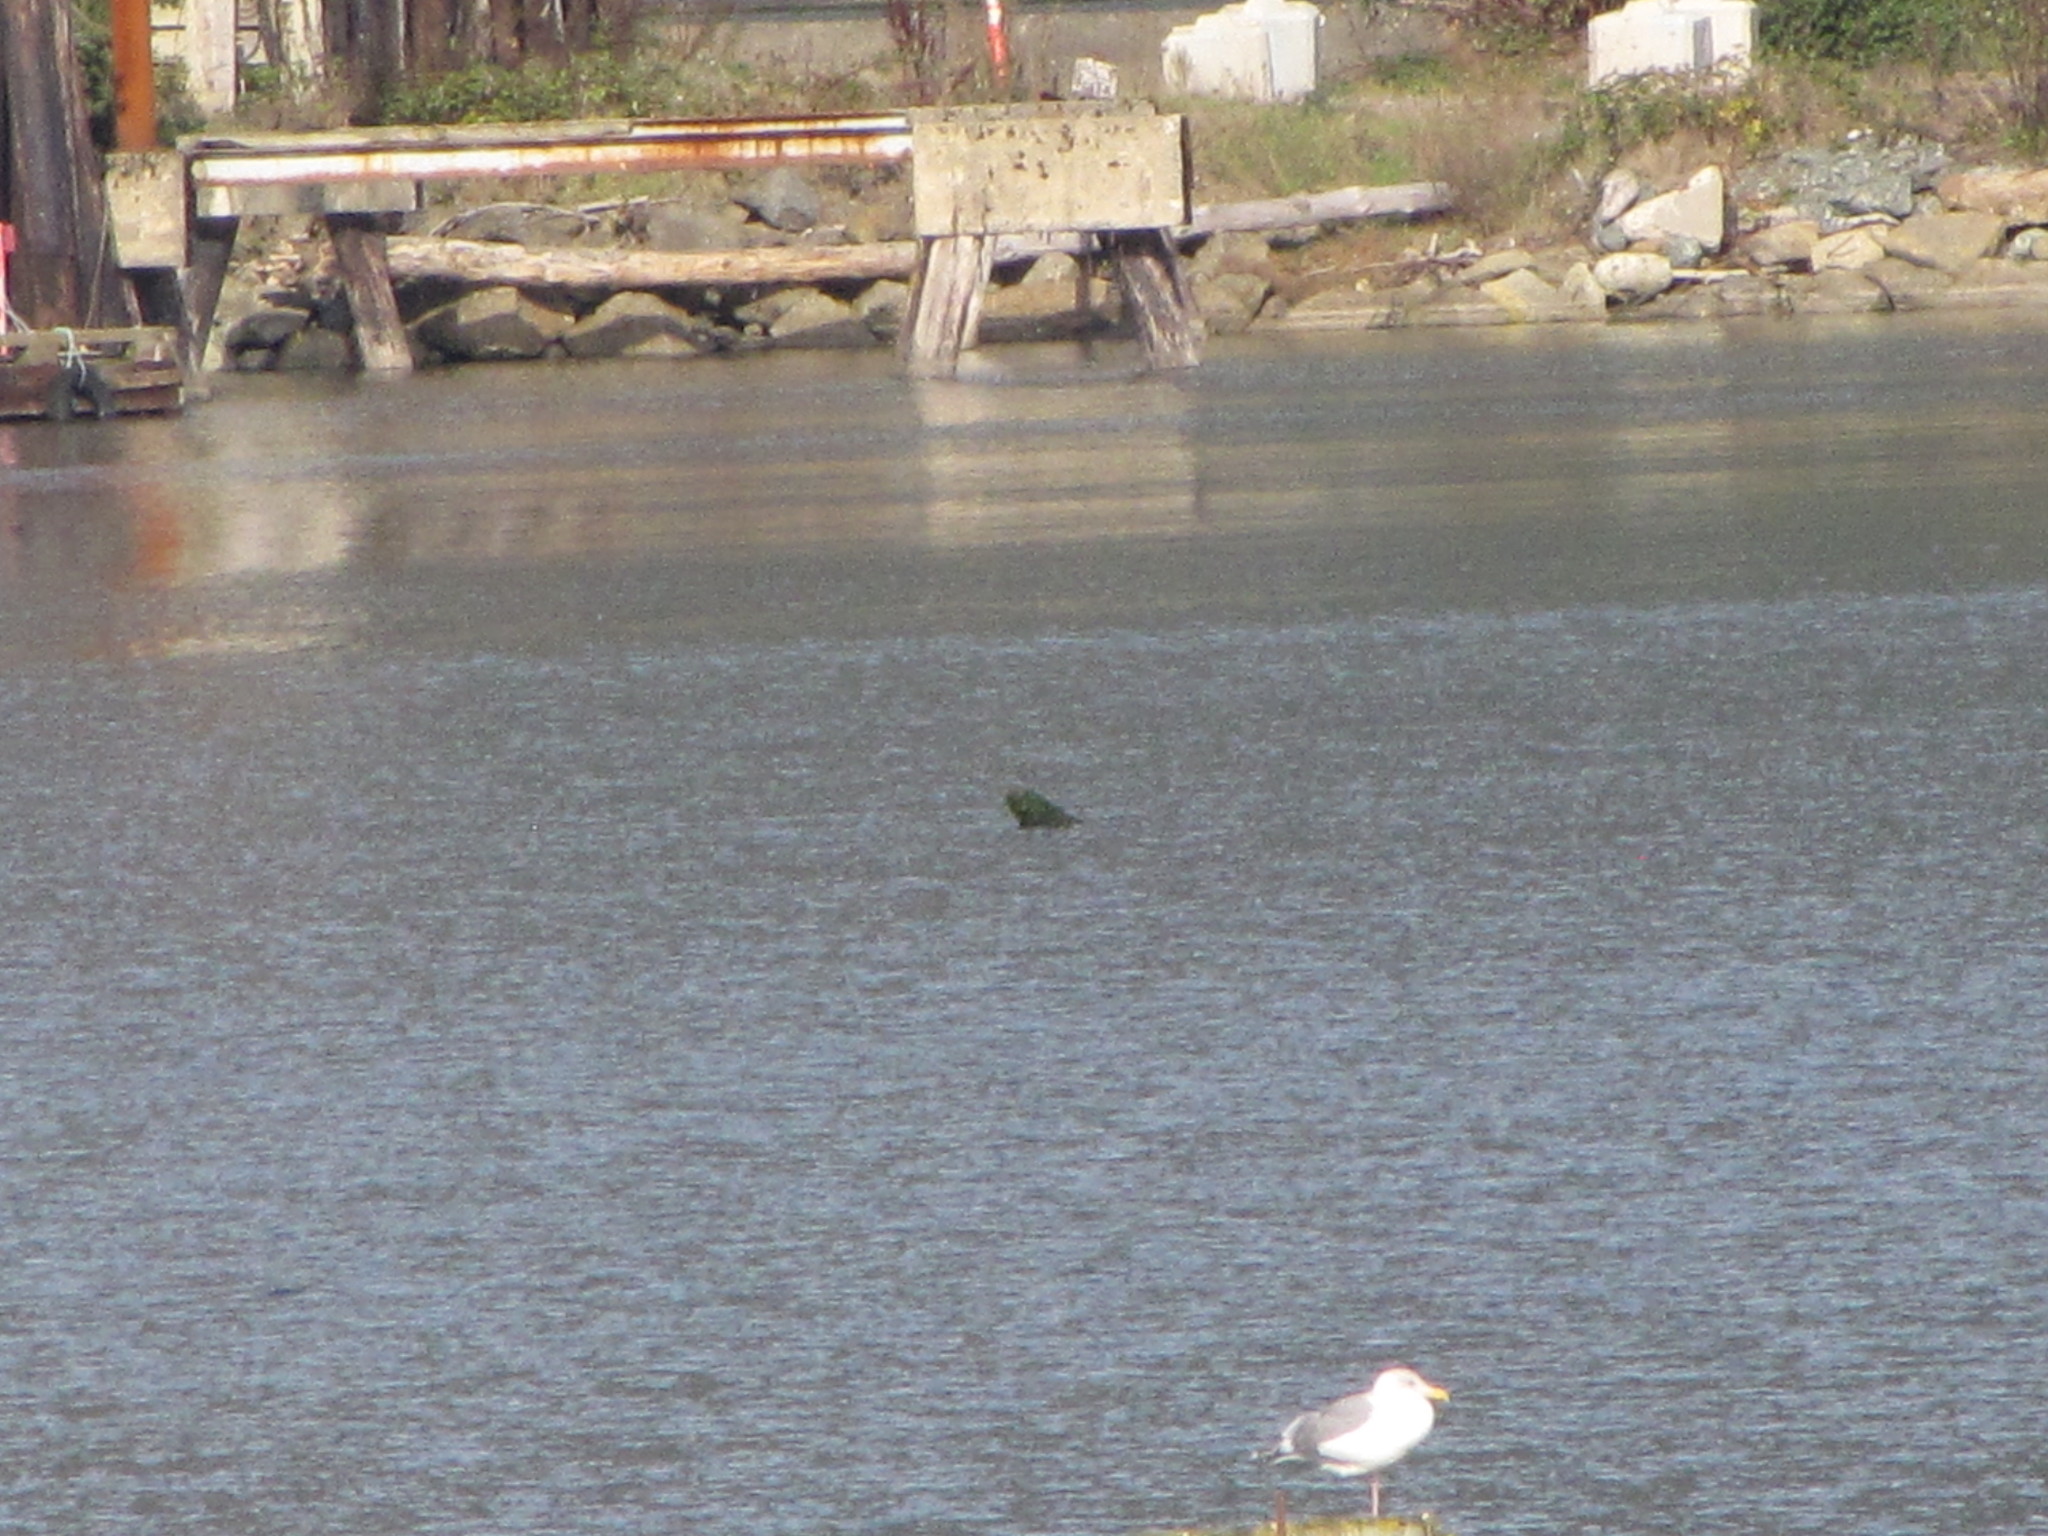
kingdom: Animalia
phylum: Chordata
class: Aves
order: Charadriiformes
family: Laridae
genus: Larus
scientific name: Larus
